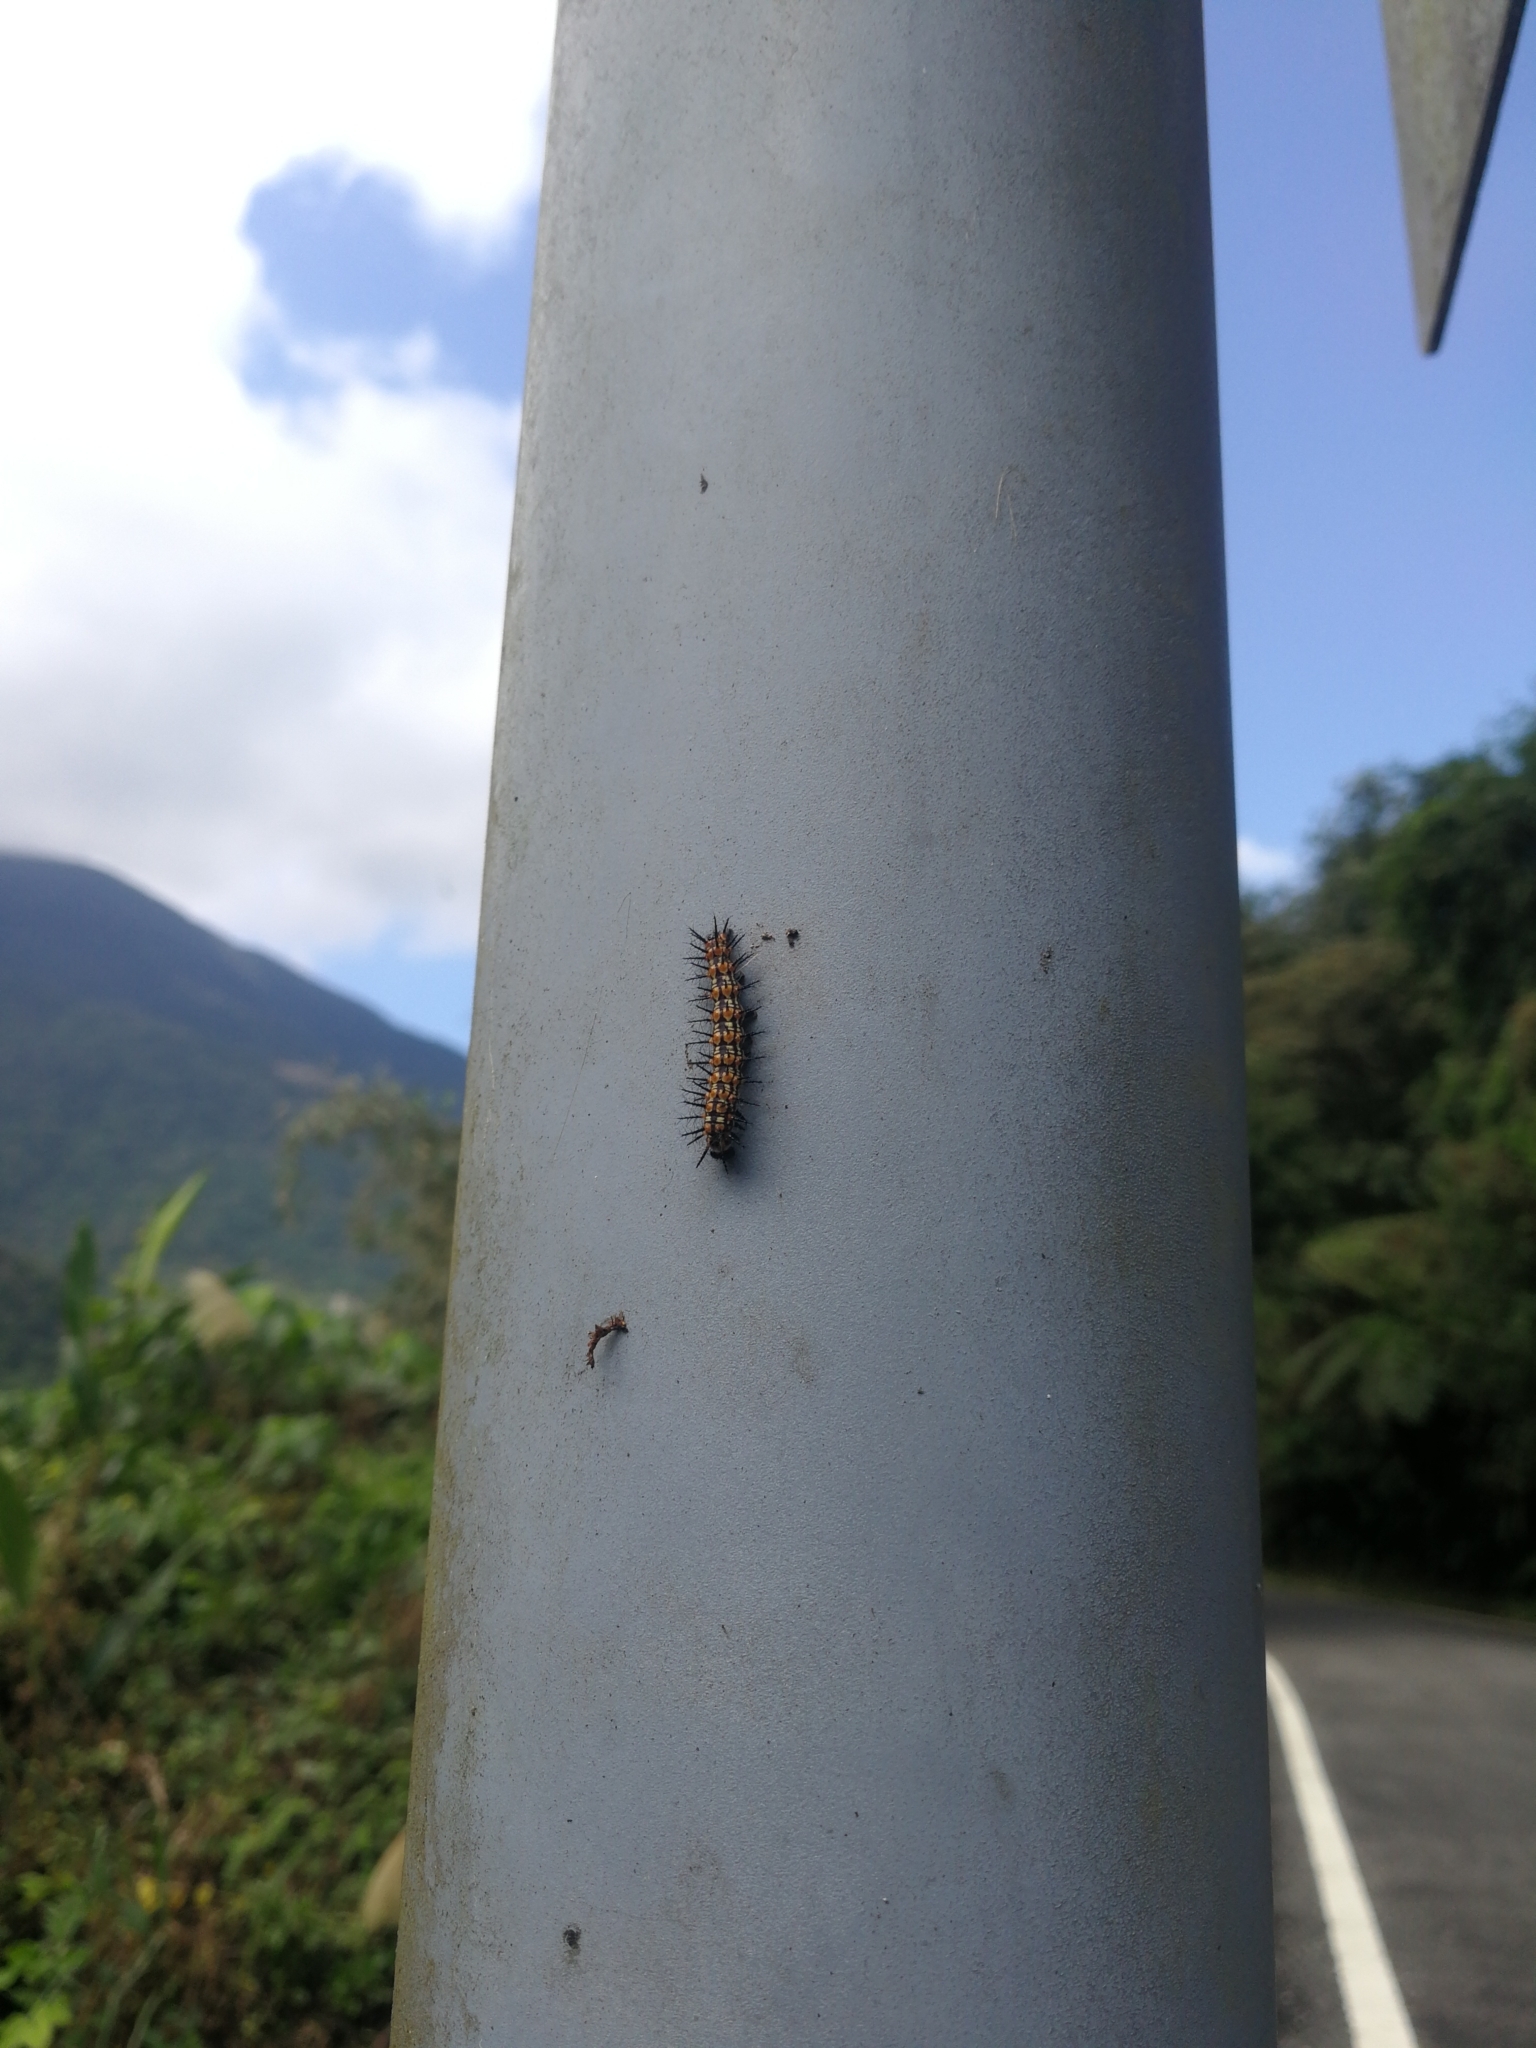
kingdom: Animalia
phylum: Arthropoda
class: Insecta
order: Lepidoptera
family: Nymphalidae
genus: Acraea
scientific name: Acraea Telchinia issoria
